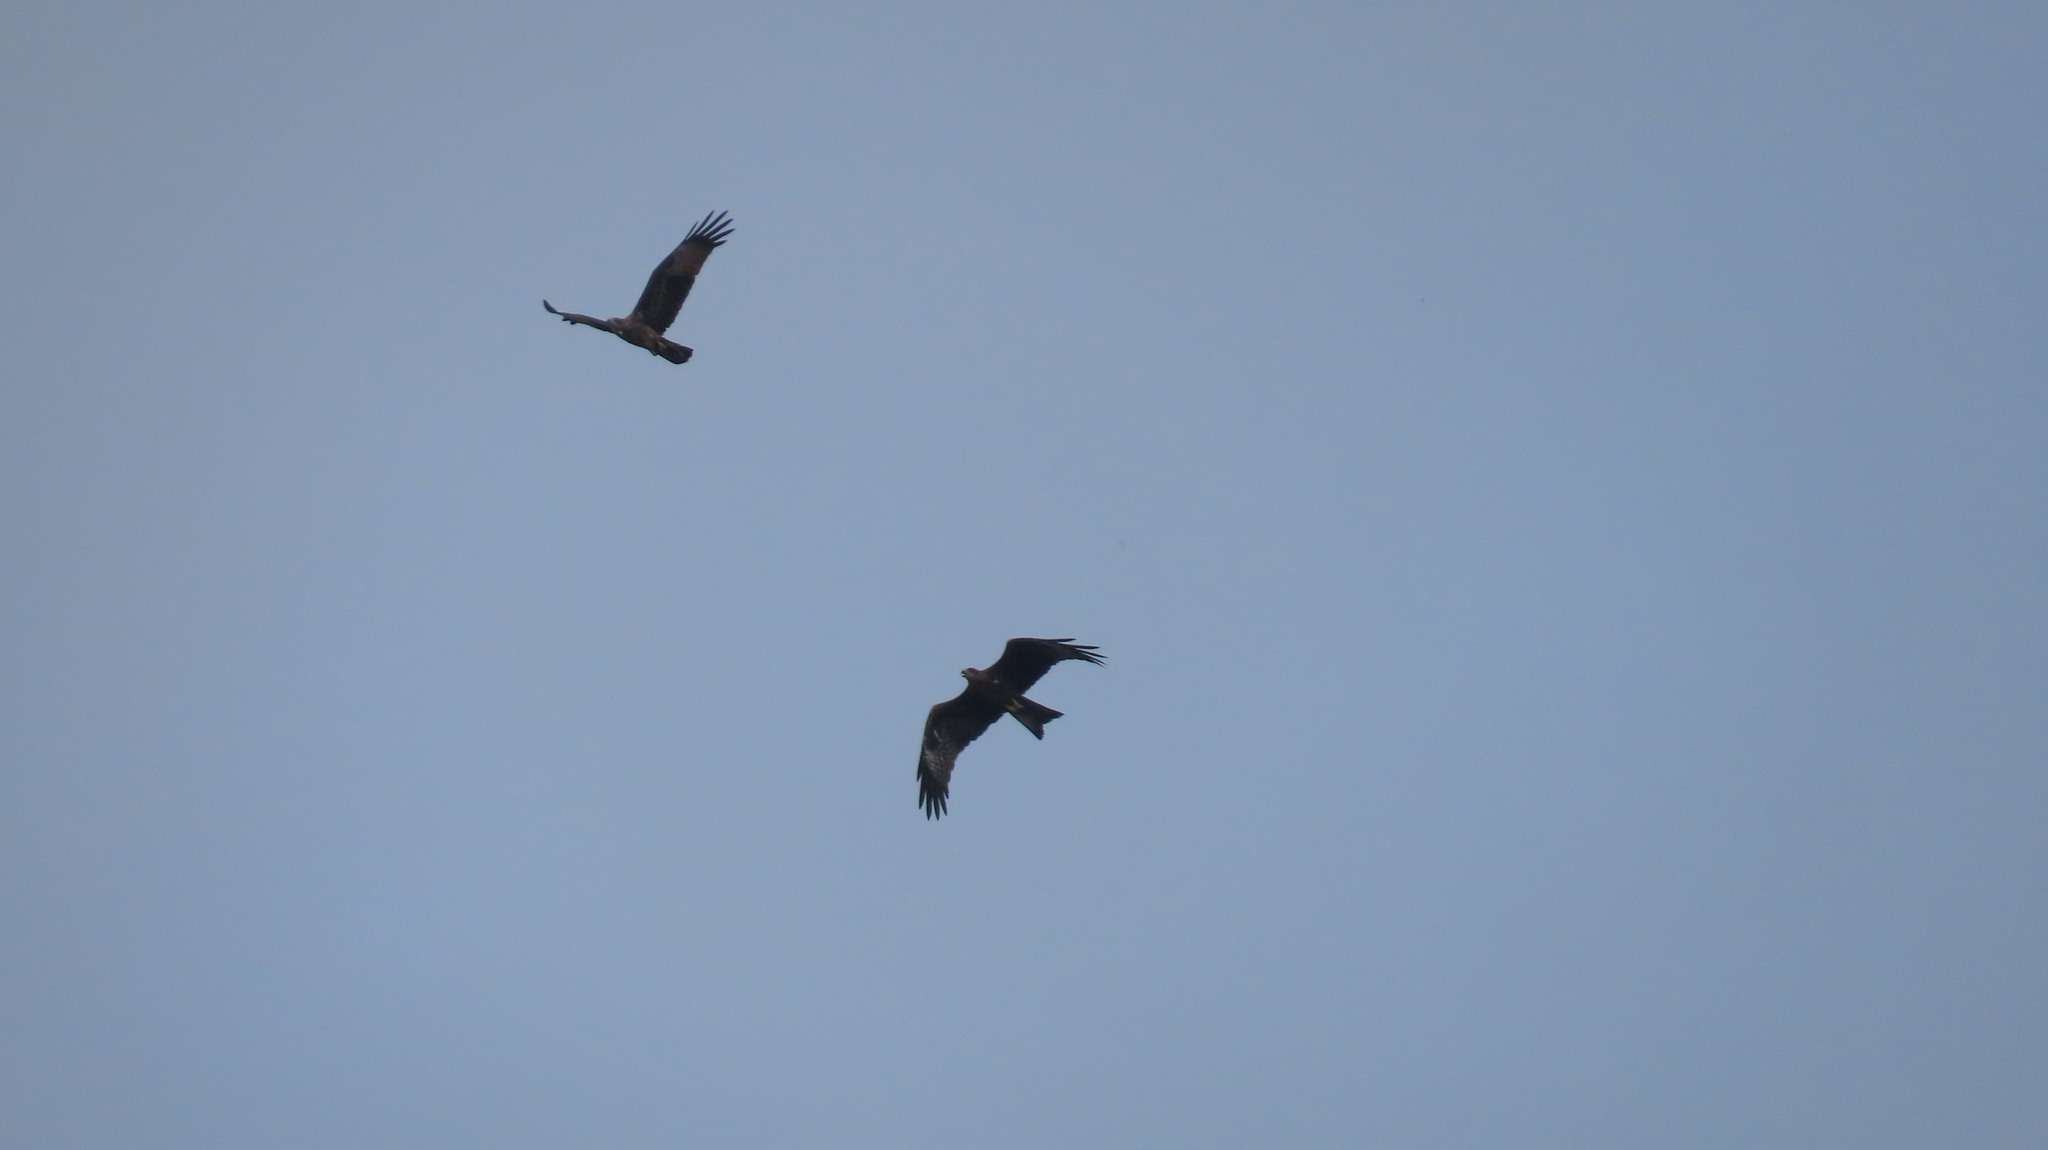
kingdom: Animalia
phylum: Chordata
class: Aves
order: Accipitriformes
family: Accipitridae
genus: Haliastur
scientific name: Haliastur indus
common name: Brahminy kite
